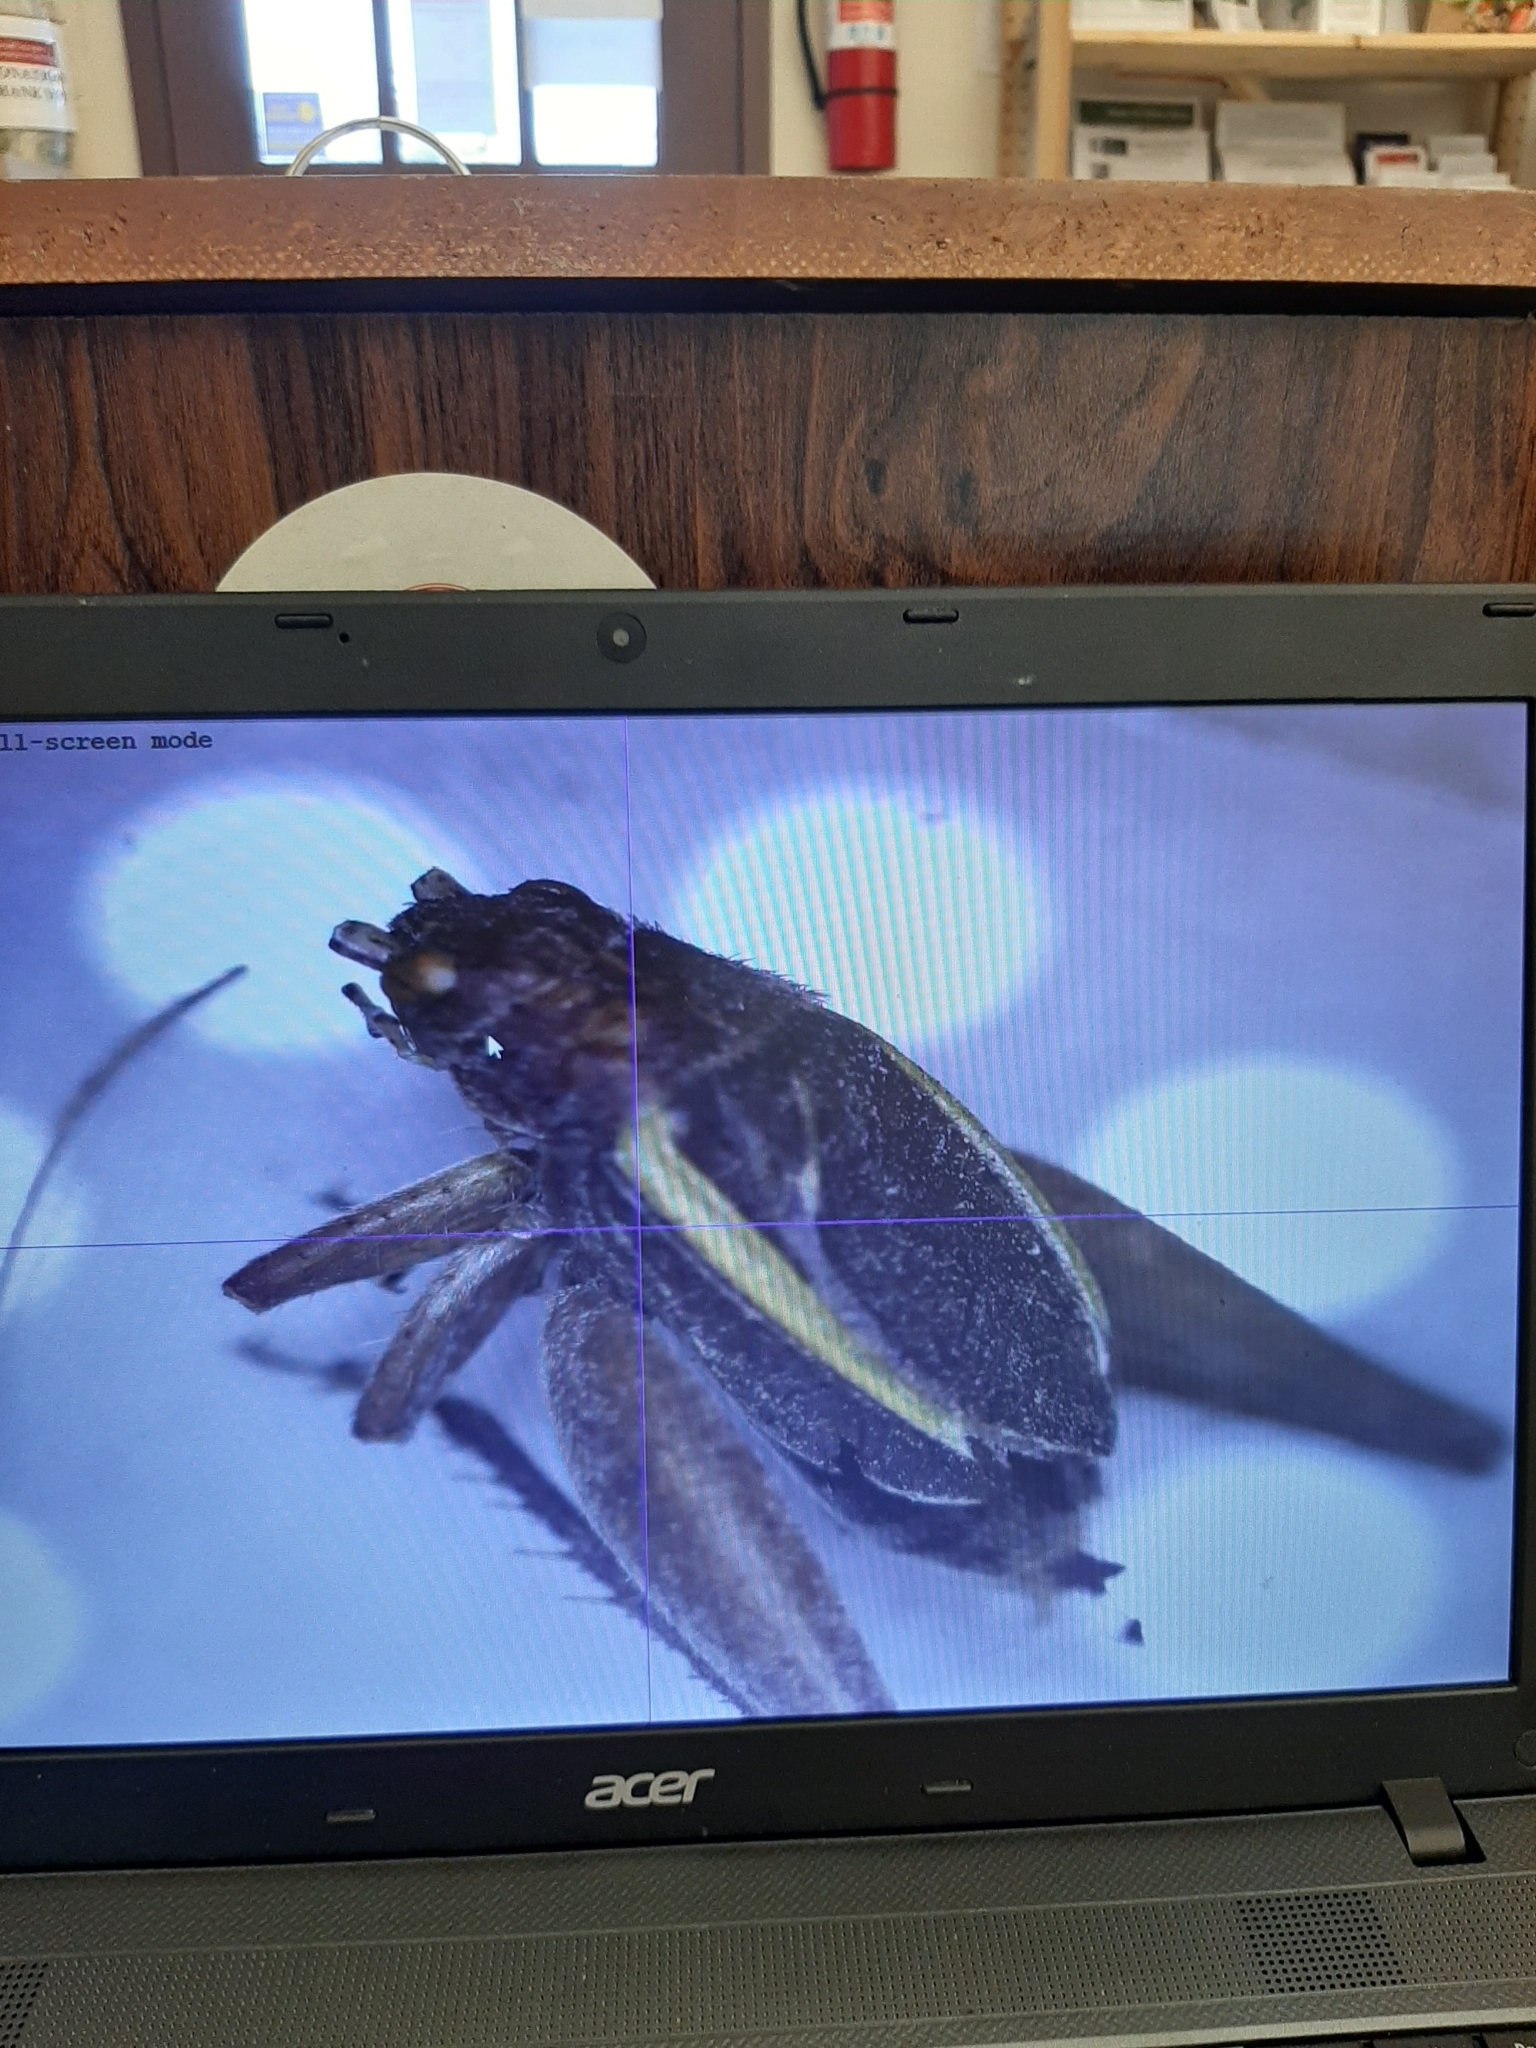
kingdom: Animalia
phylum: Arthropoda
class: Insecta
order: Orthoptera
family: Gryllidae
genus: Hapithus
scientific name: Hapithus agitator
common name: Restless bush cricket
